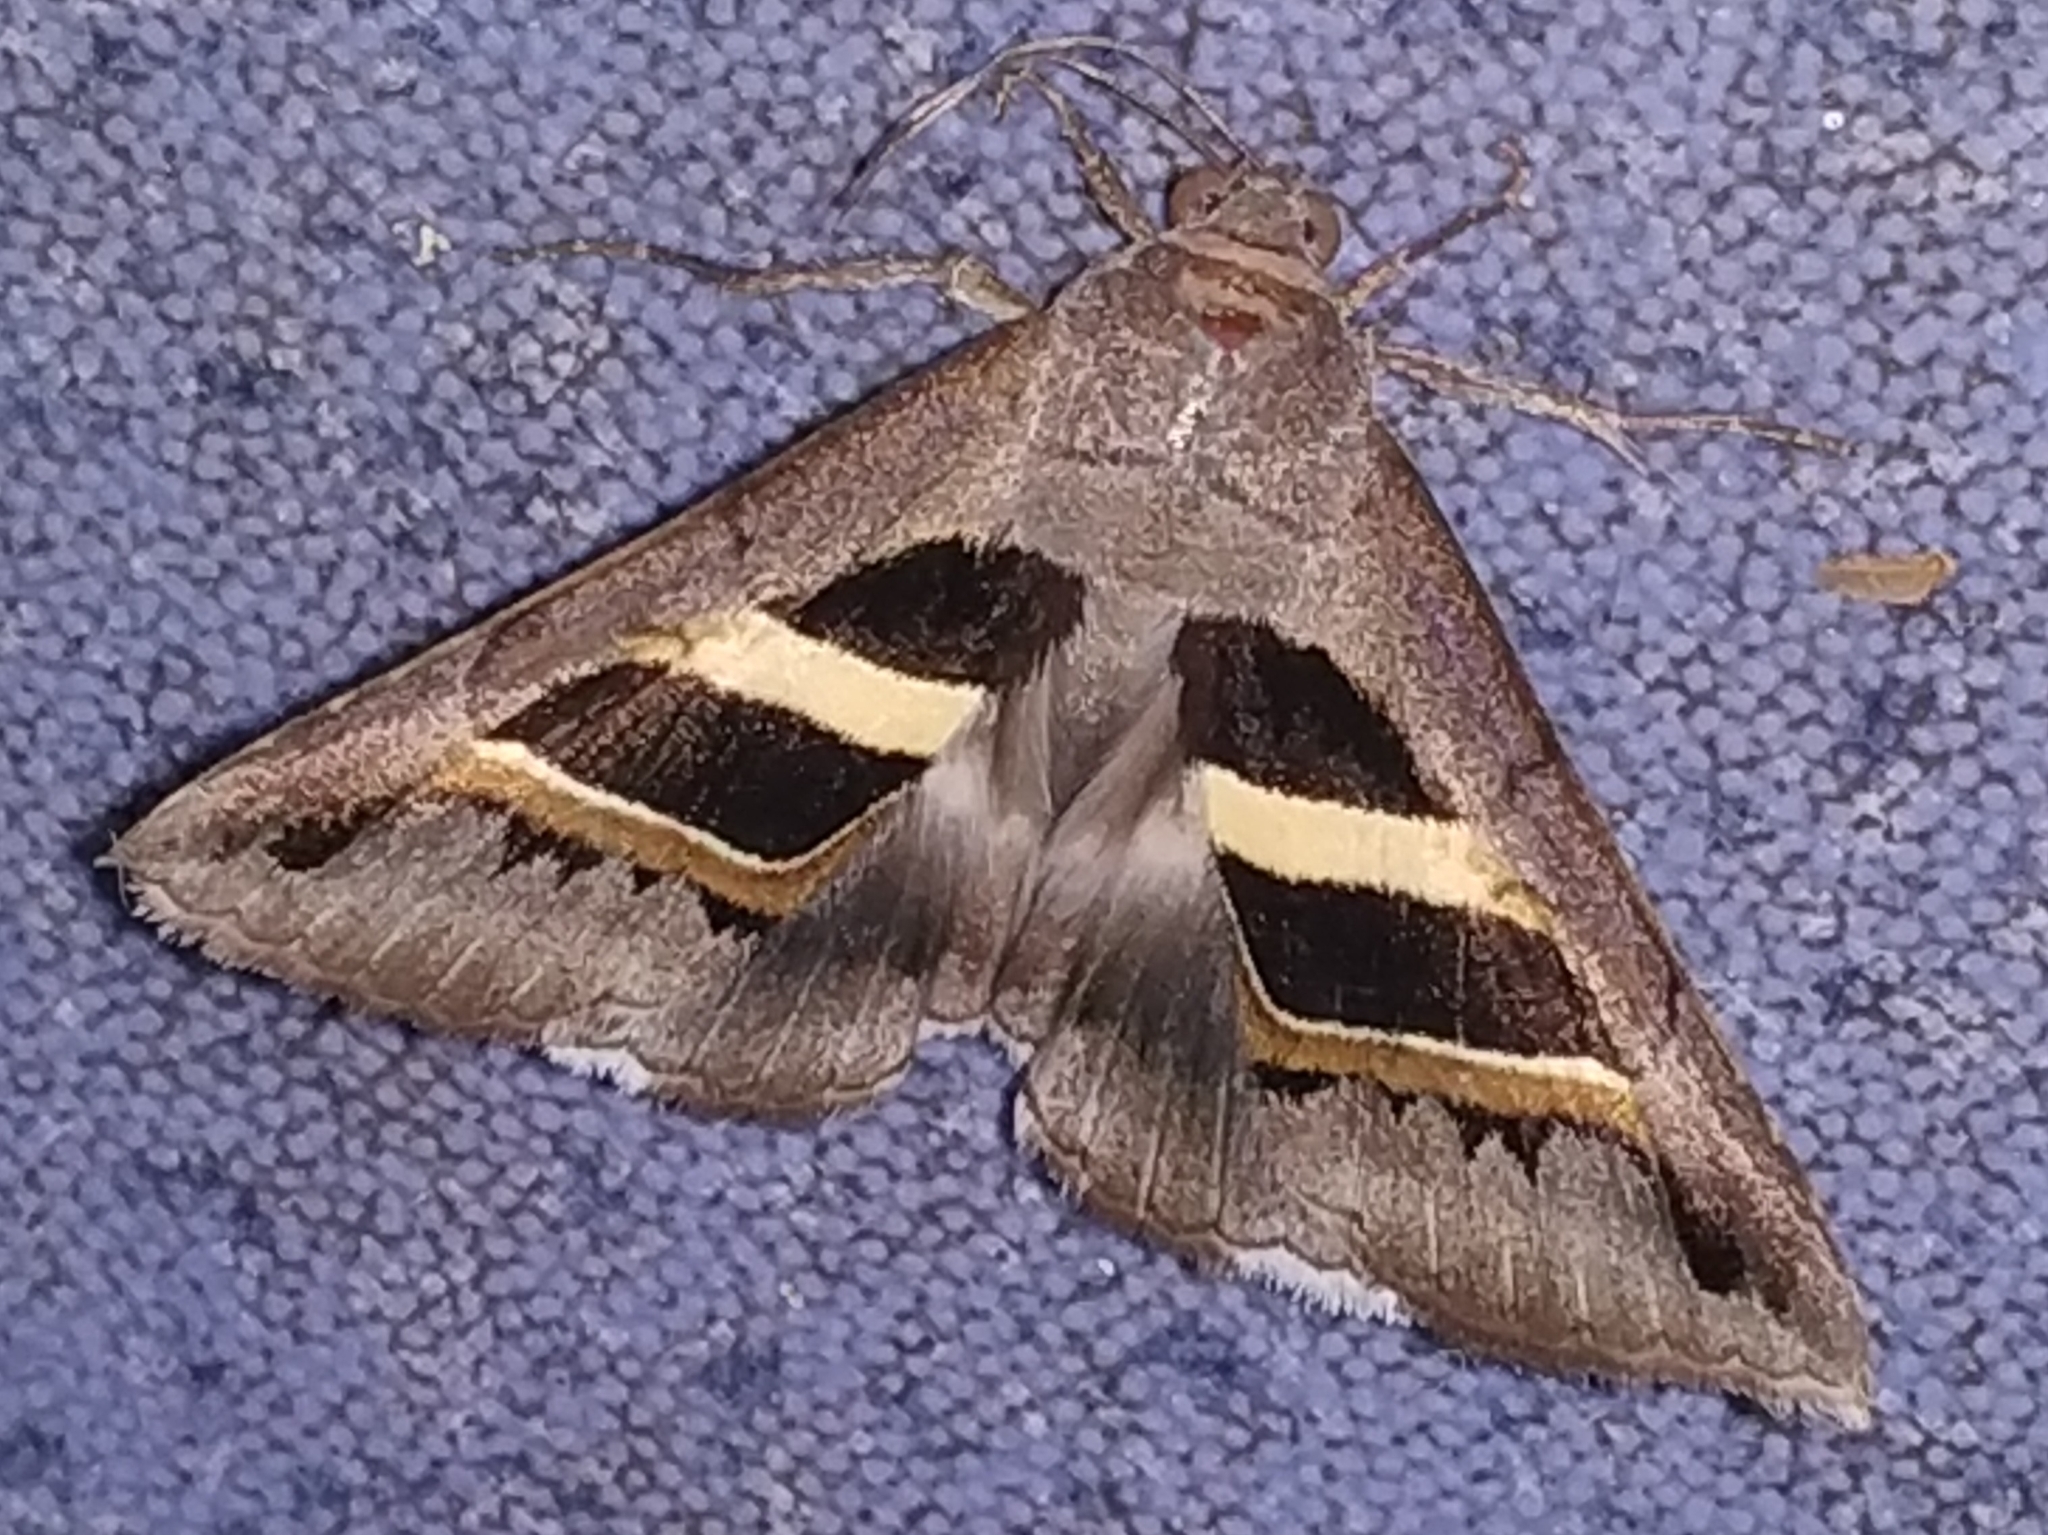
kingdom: Animalia
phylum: Arthropoda
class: Insecta
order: Lepidoptera
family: Erebidae
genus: Grammodes
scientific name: Grammodes geometrica
